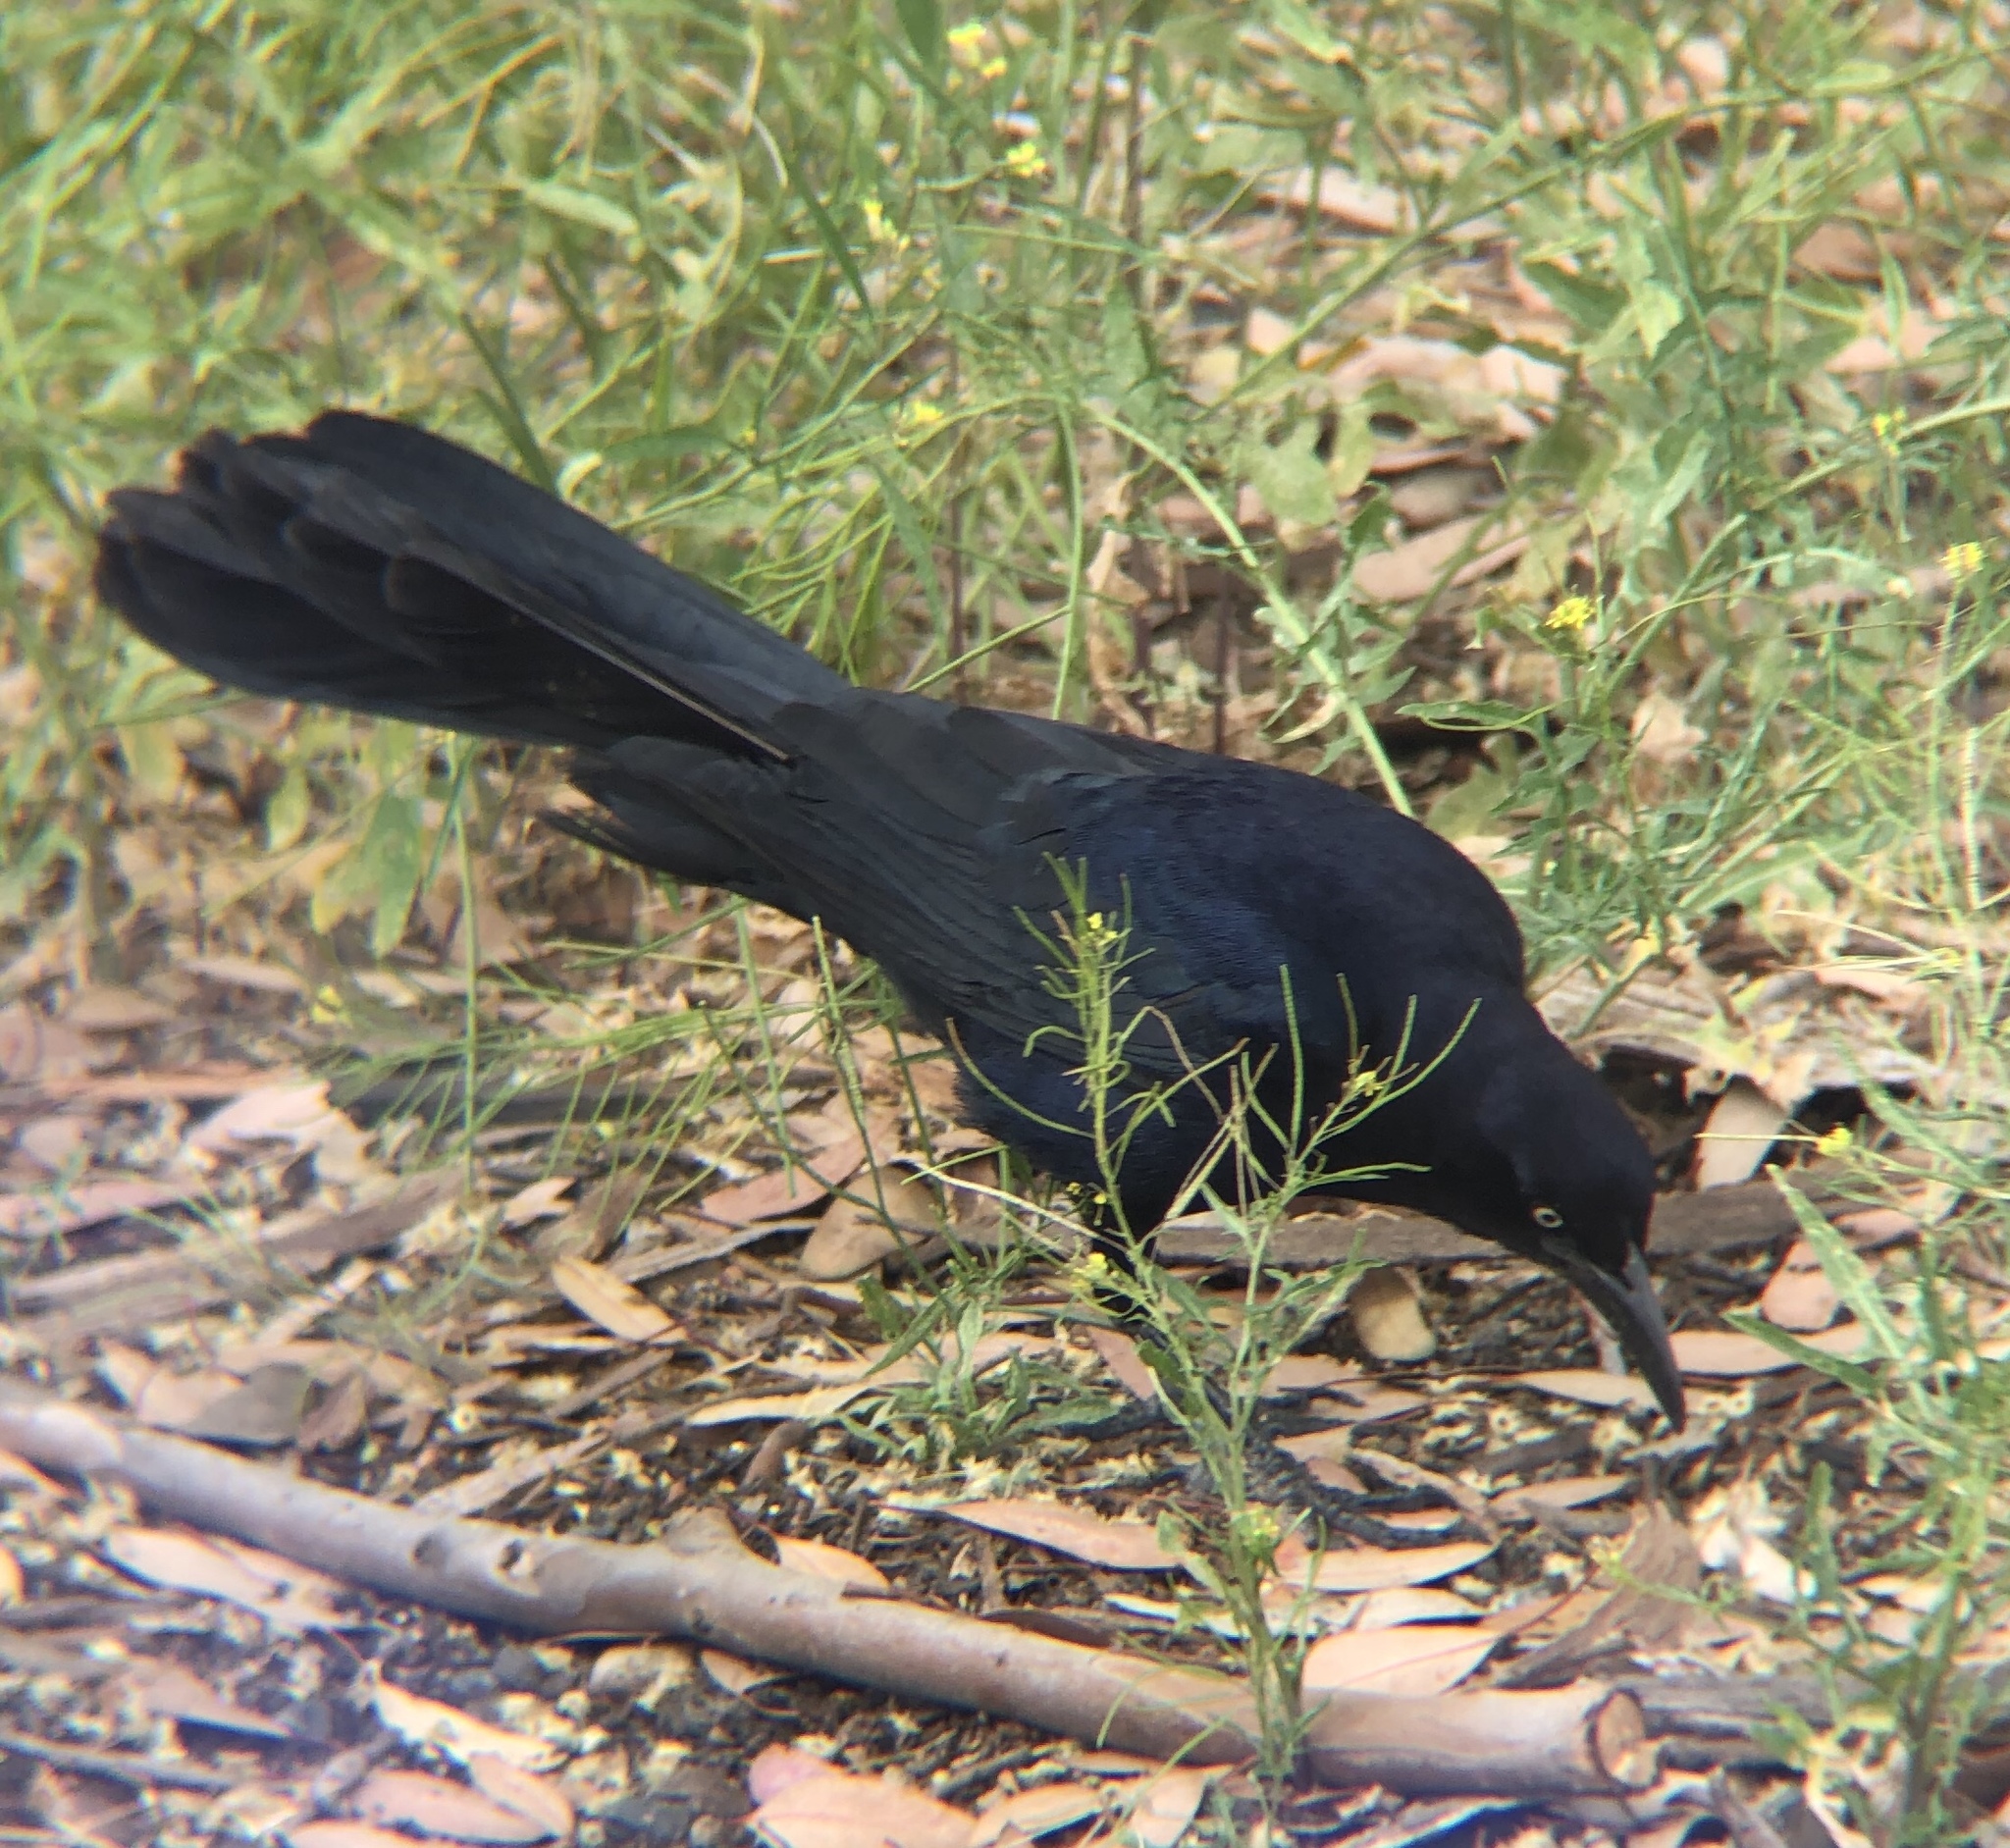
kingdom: Animalia
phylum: Chordata
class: Aves
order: Passeriformes
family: Icteridae
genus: Quiscalus
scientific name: Quiscalus mexicanus
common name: Great-tailed grackle
